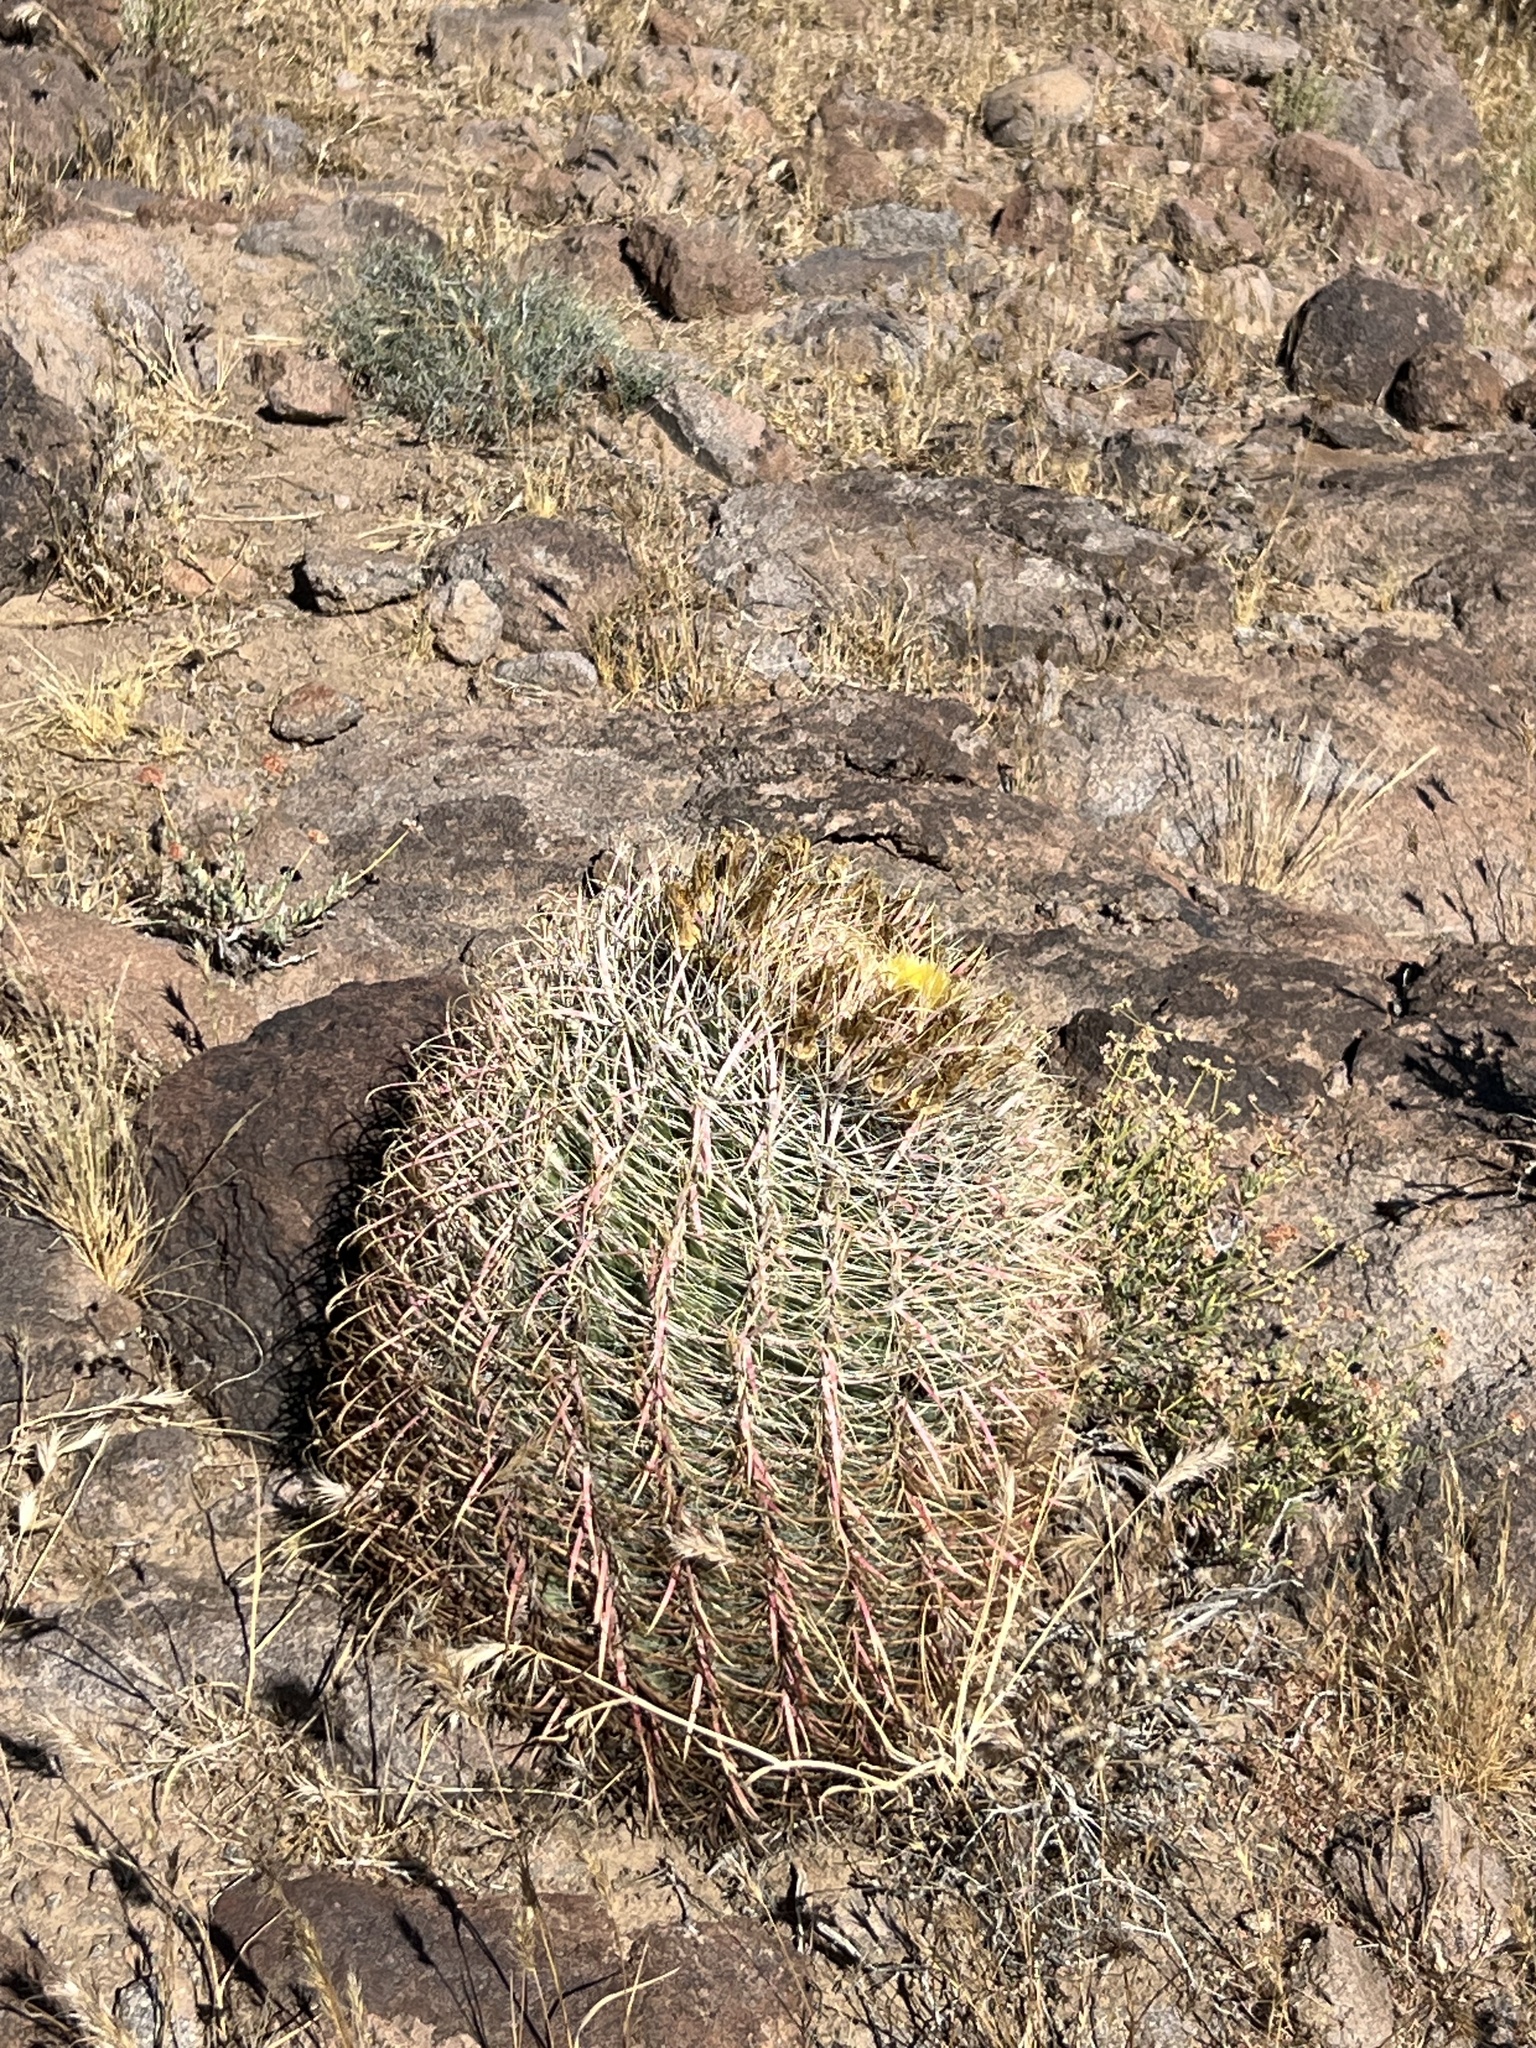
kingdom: Plantae
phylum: Tracheophyta
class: Magnoliopsida
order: Caryophyllales
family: Cactaceae
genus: Ferocactus
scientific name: Ferocactus cylindraceus
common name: California barrel cactus
